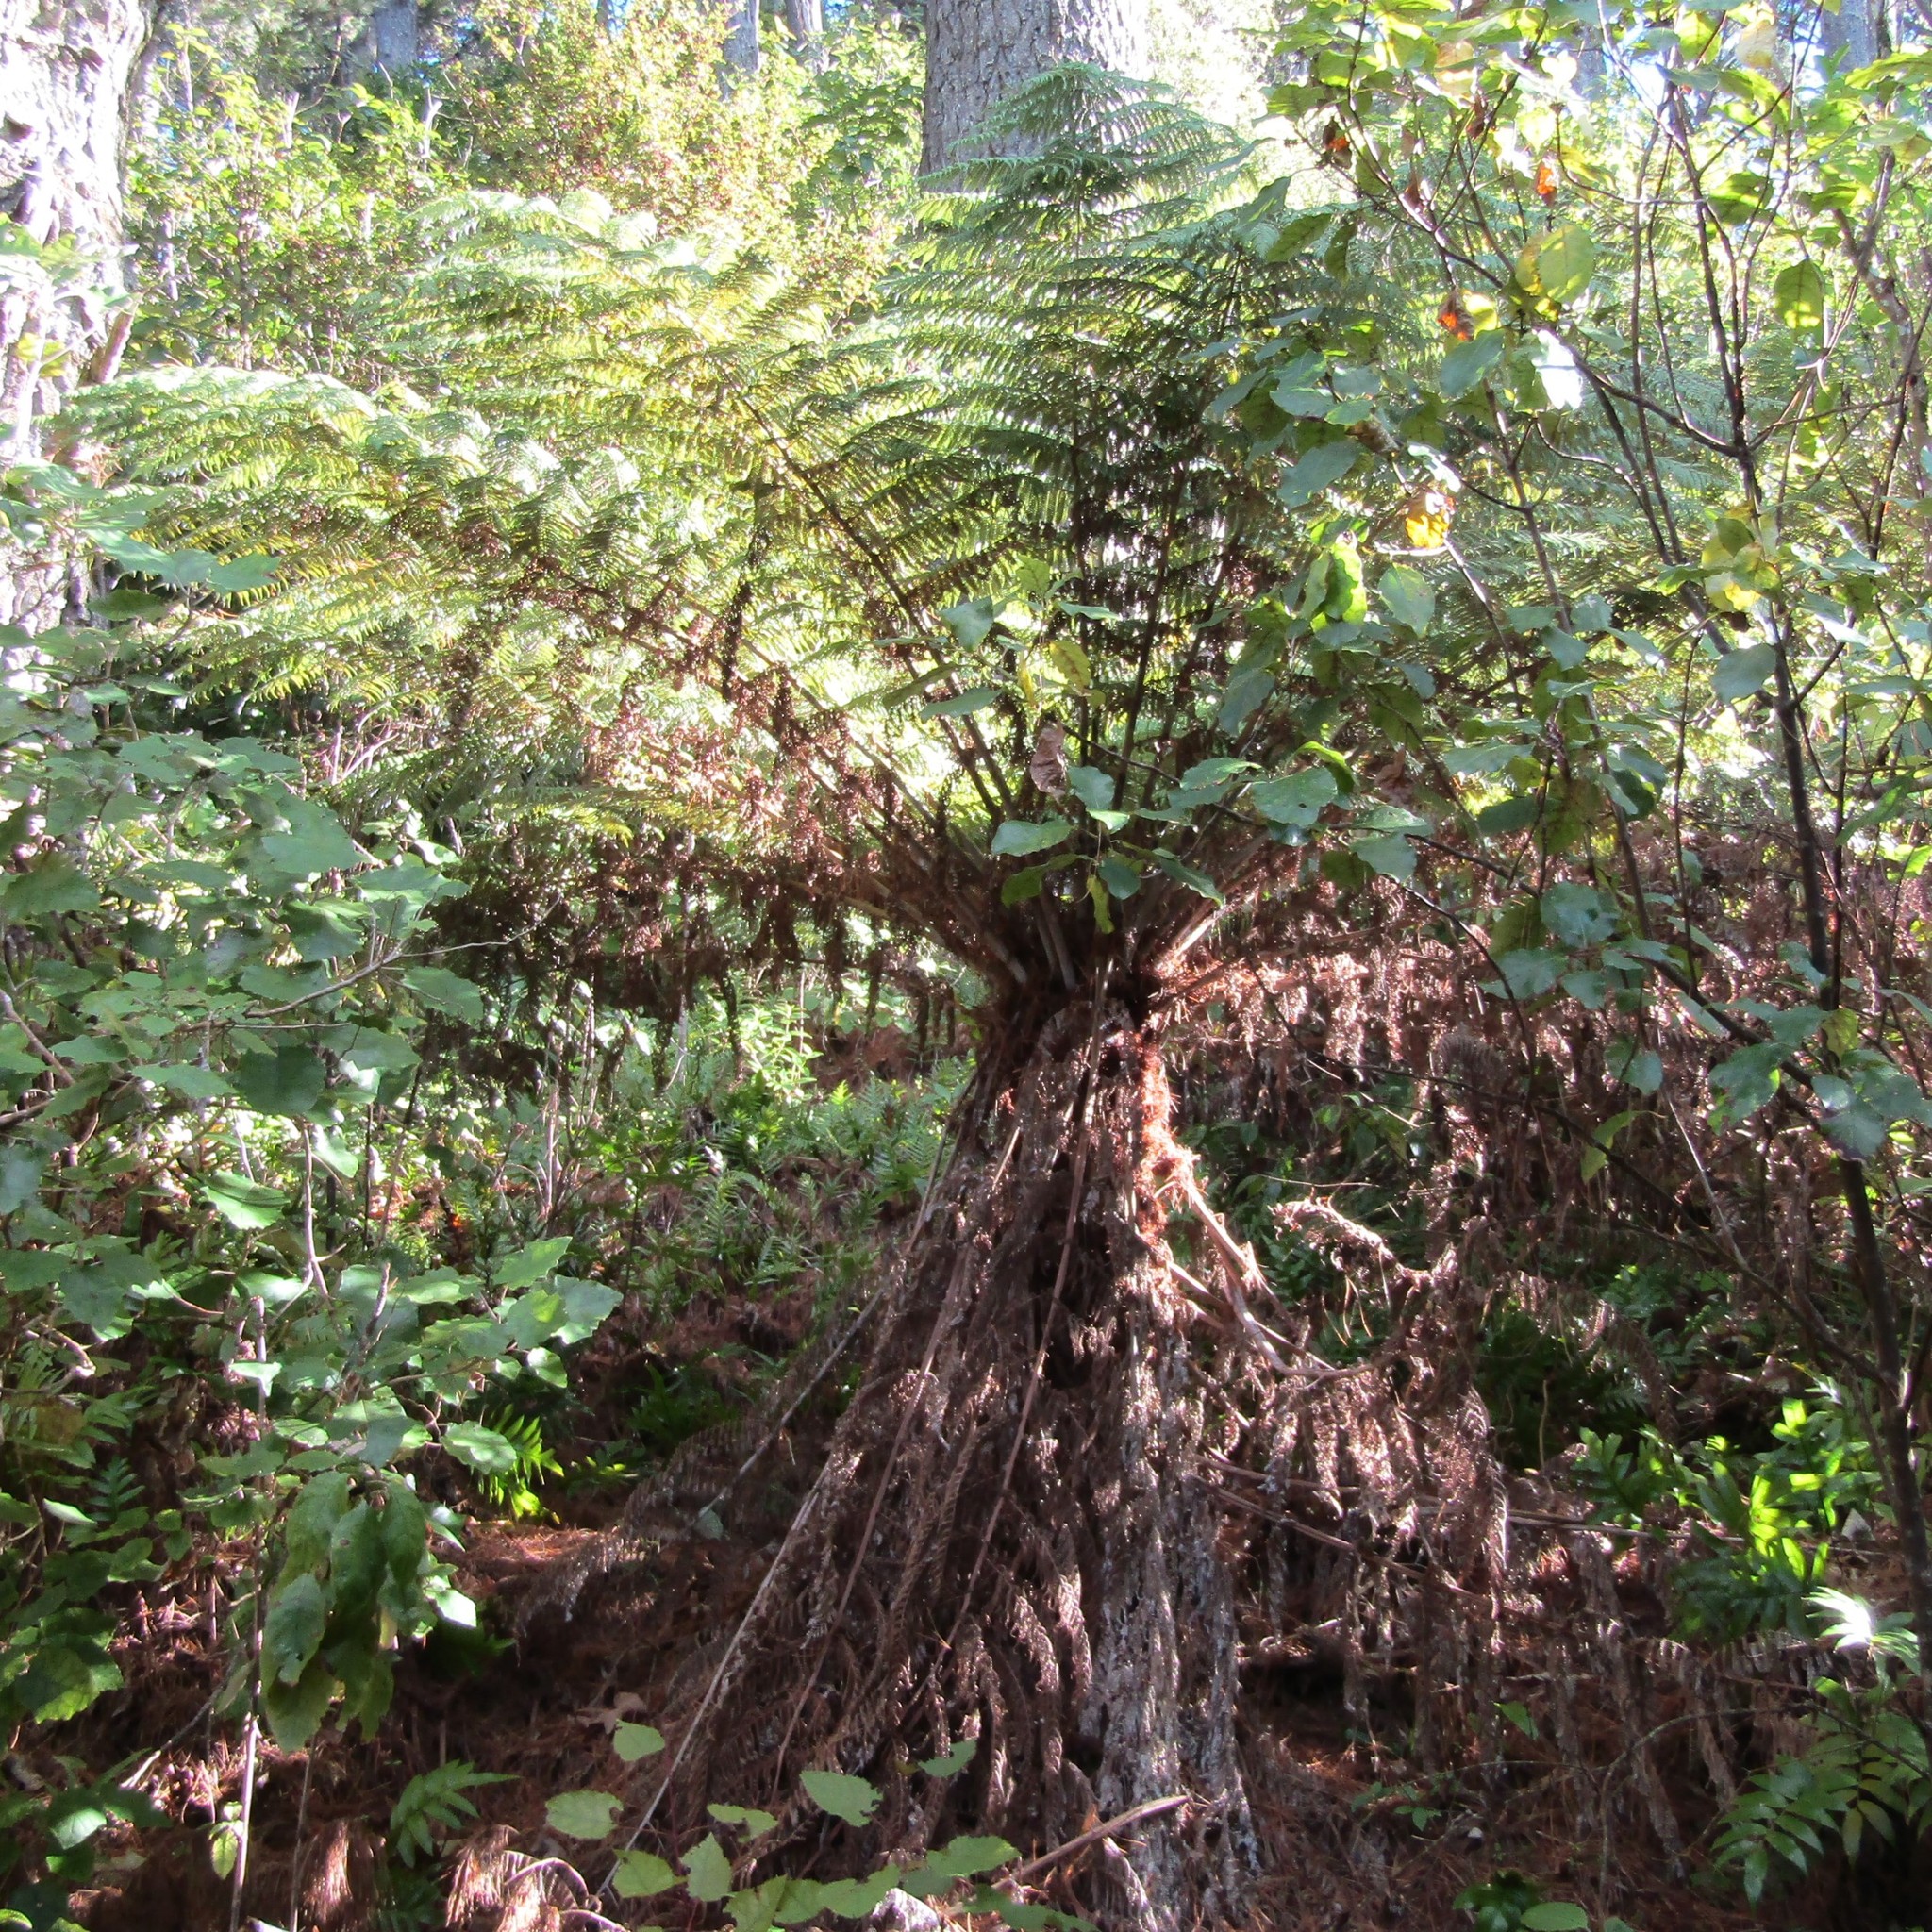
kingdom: Plantae
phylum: Tracheophyta
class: Polypodiopsida
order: Cyatheales
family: Cyatheaceae
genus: Alsophila
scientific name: Alsophila dealbata
